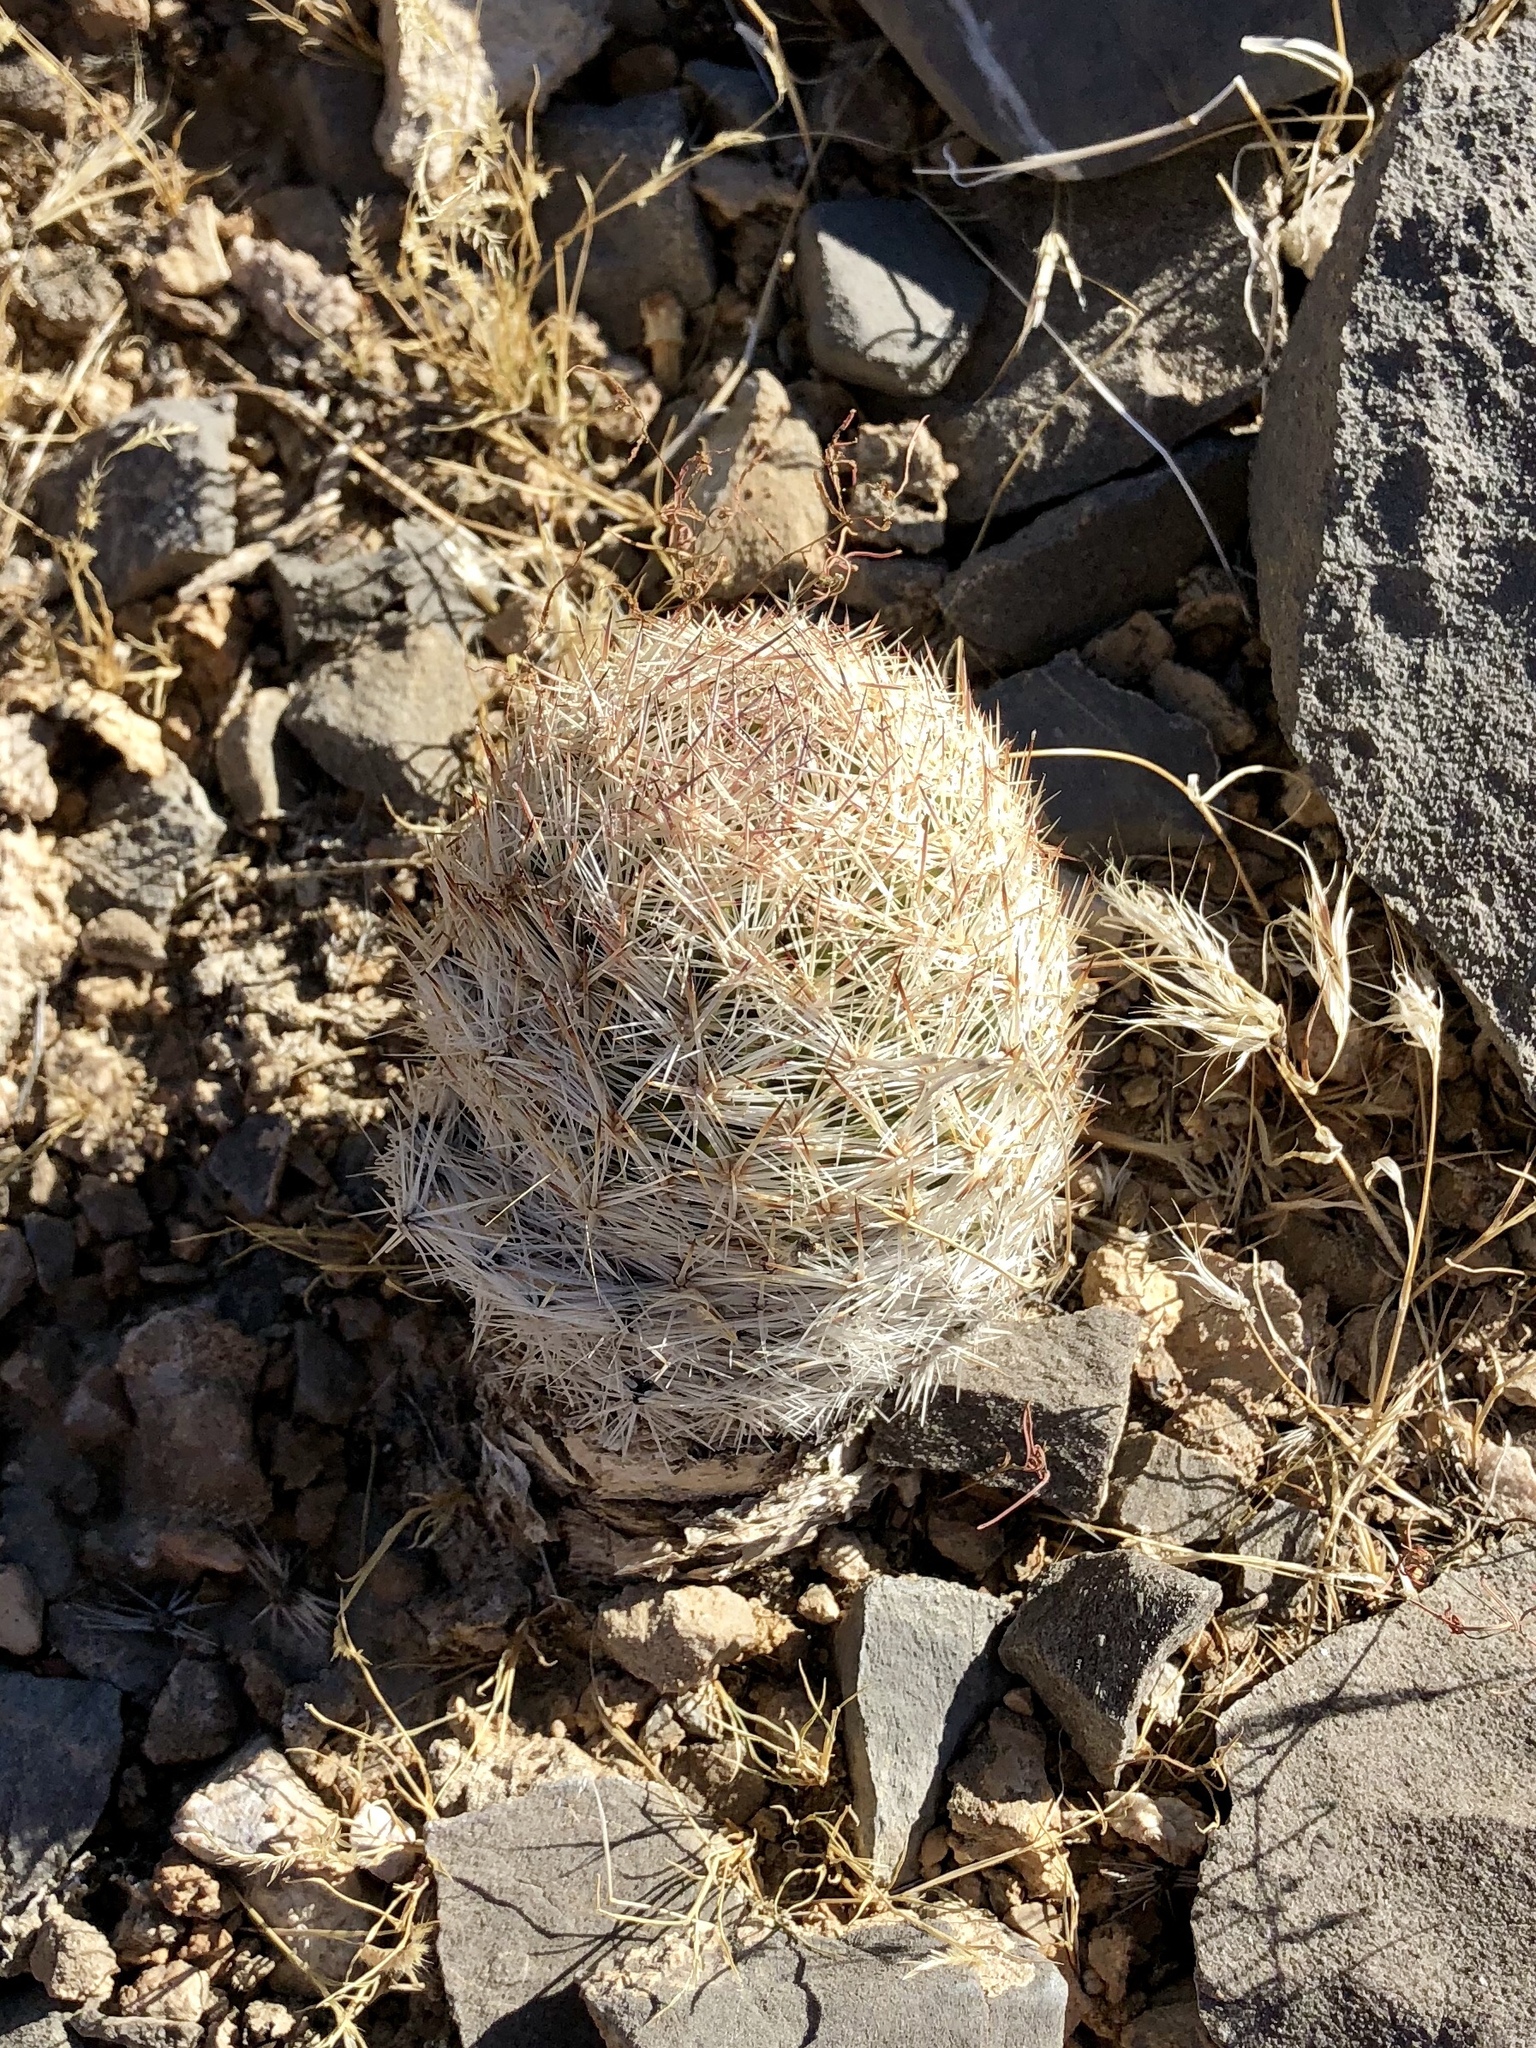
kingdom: Plantae
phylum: Tracheophyta
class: Magnoliopsida
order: Caryophyllales
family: Cactaceae
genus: Pelecyphora
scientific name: Pelecyphora dasyacantha
